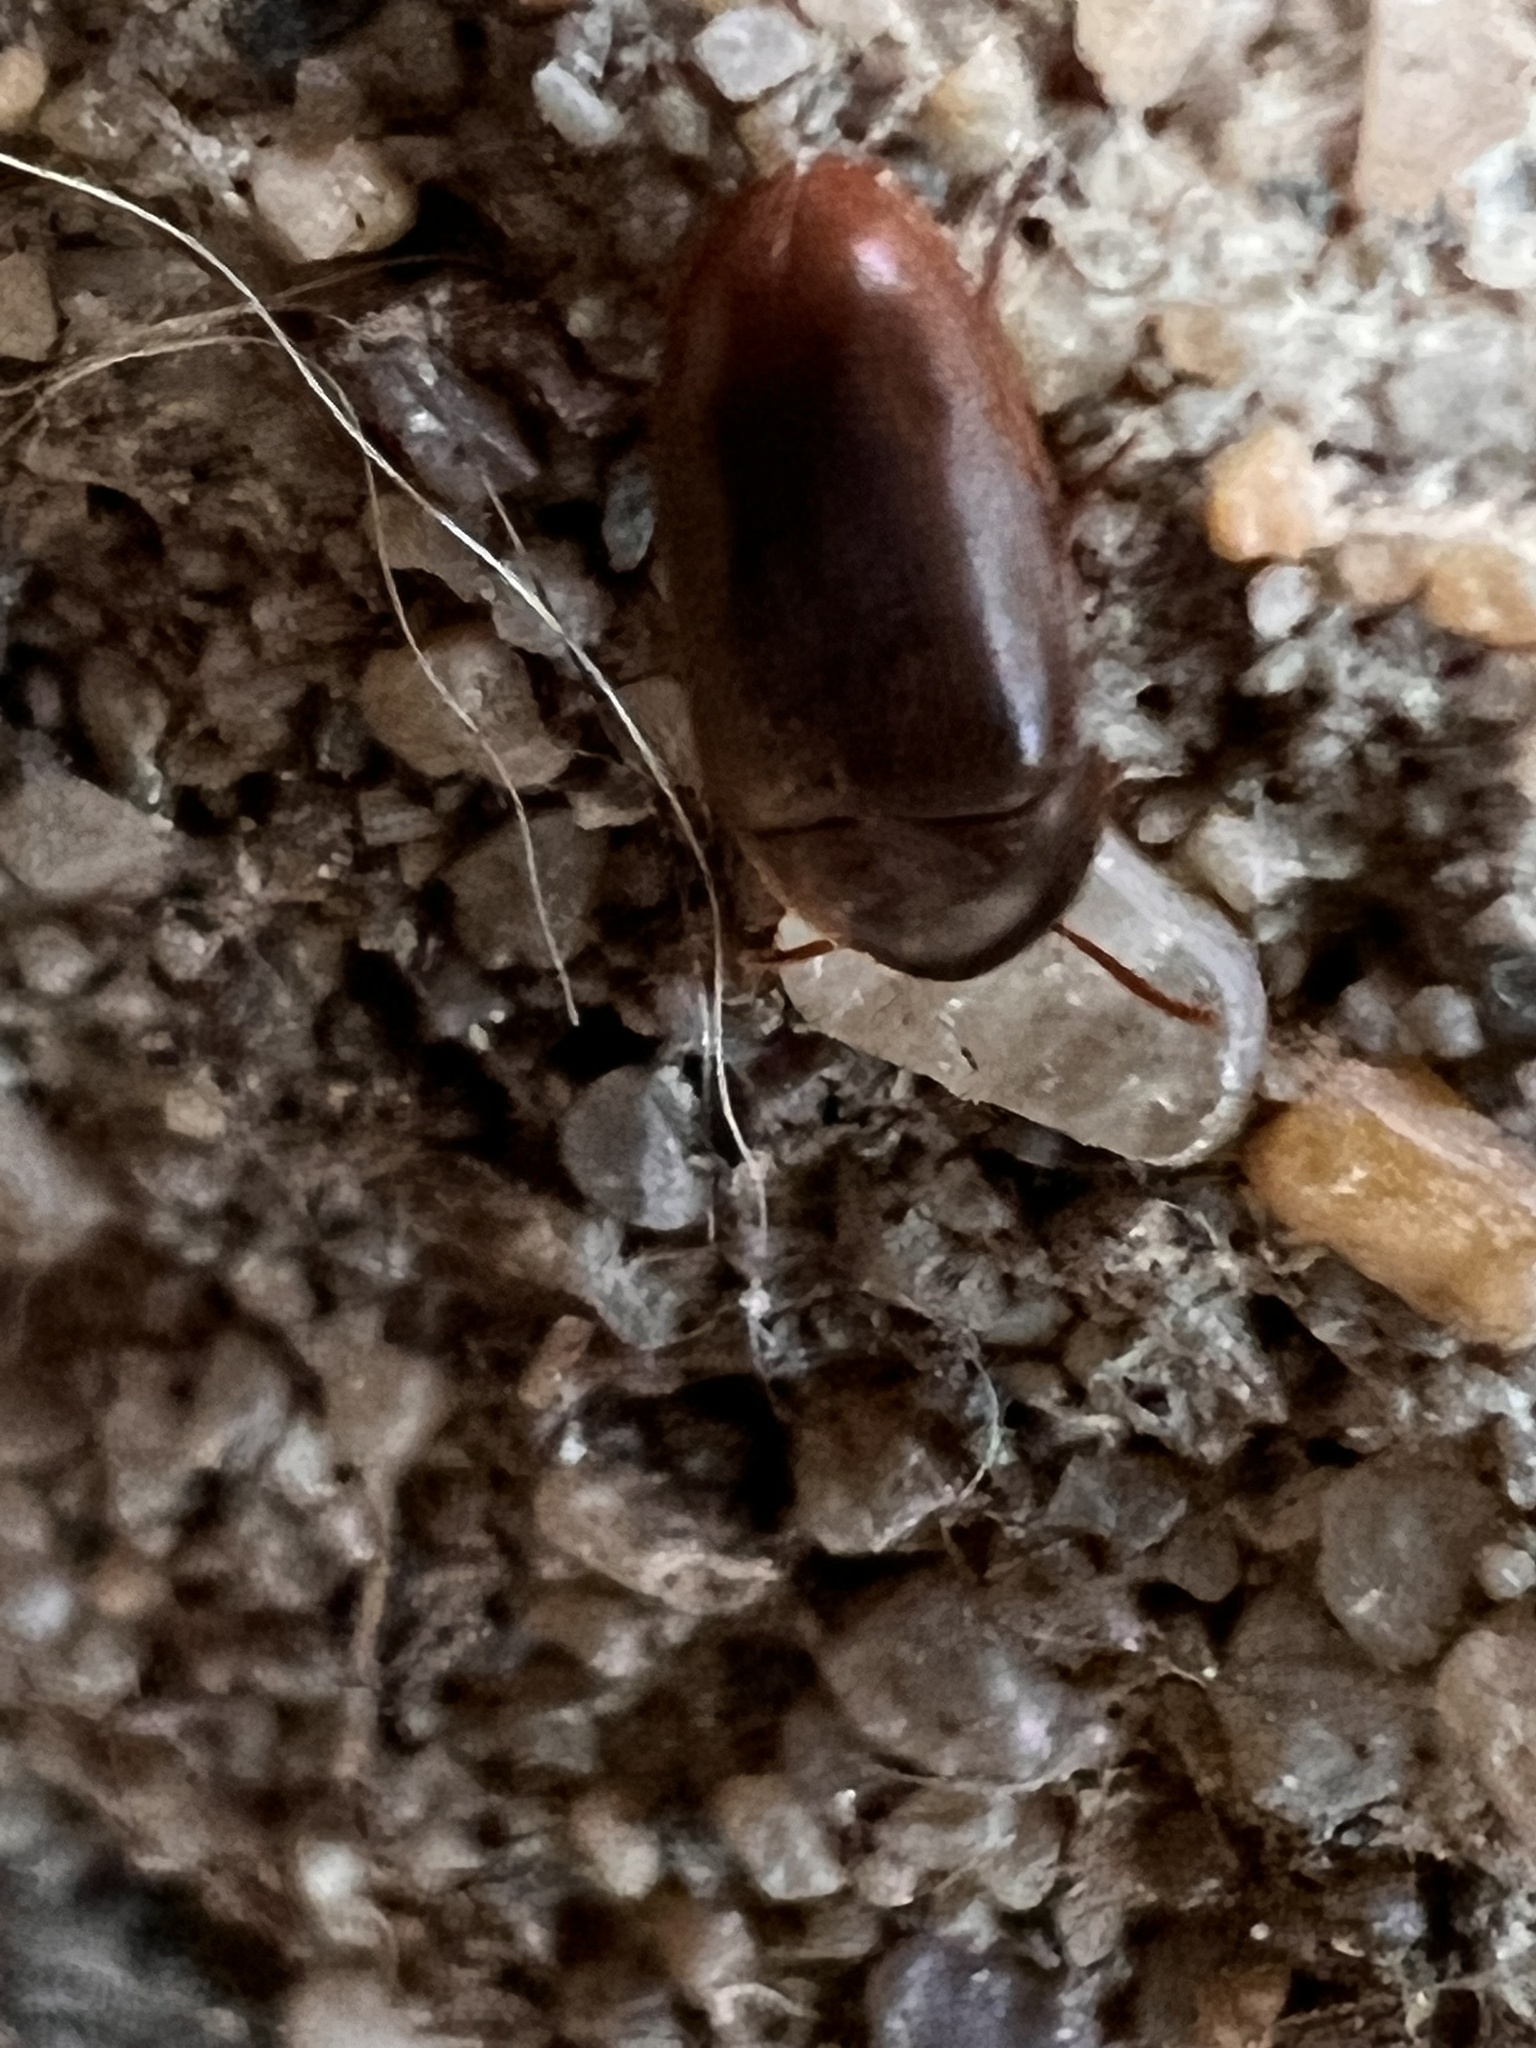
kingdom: Animalia
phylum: Arthropoda
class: Insecta
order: Coleoptera
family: Tetratomidae
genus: Eustrophus
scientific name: Eustrophus tomentosus
